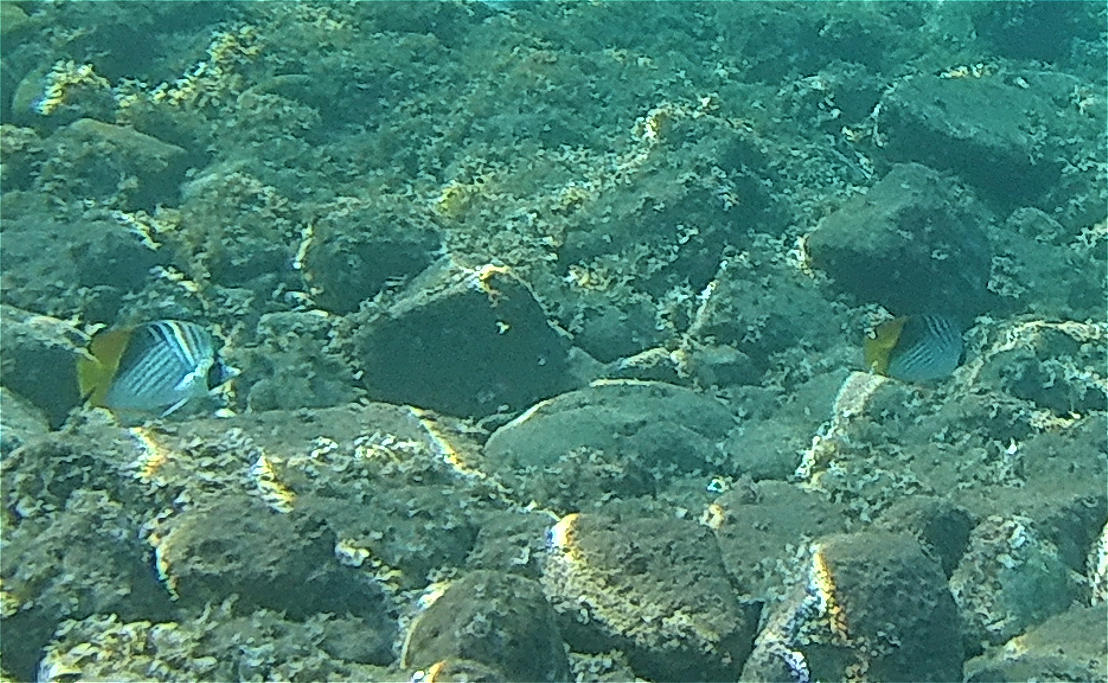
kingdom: Animalia
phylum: Chordata
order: Perciformes
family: Chaetodontidae
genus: Chaetodon
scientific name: Chaetodon auriga
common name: Threadfin butterflyfish
